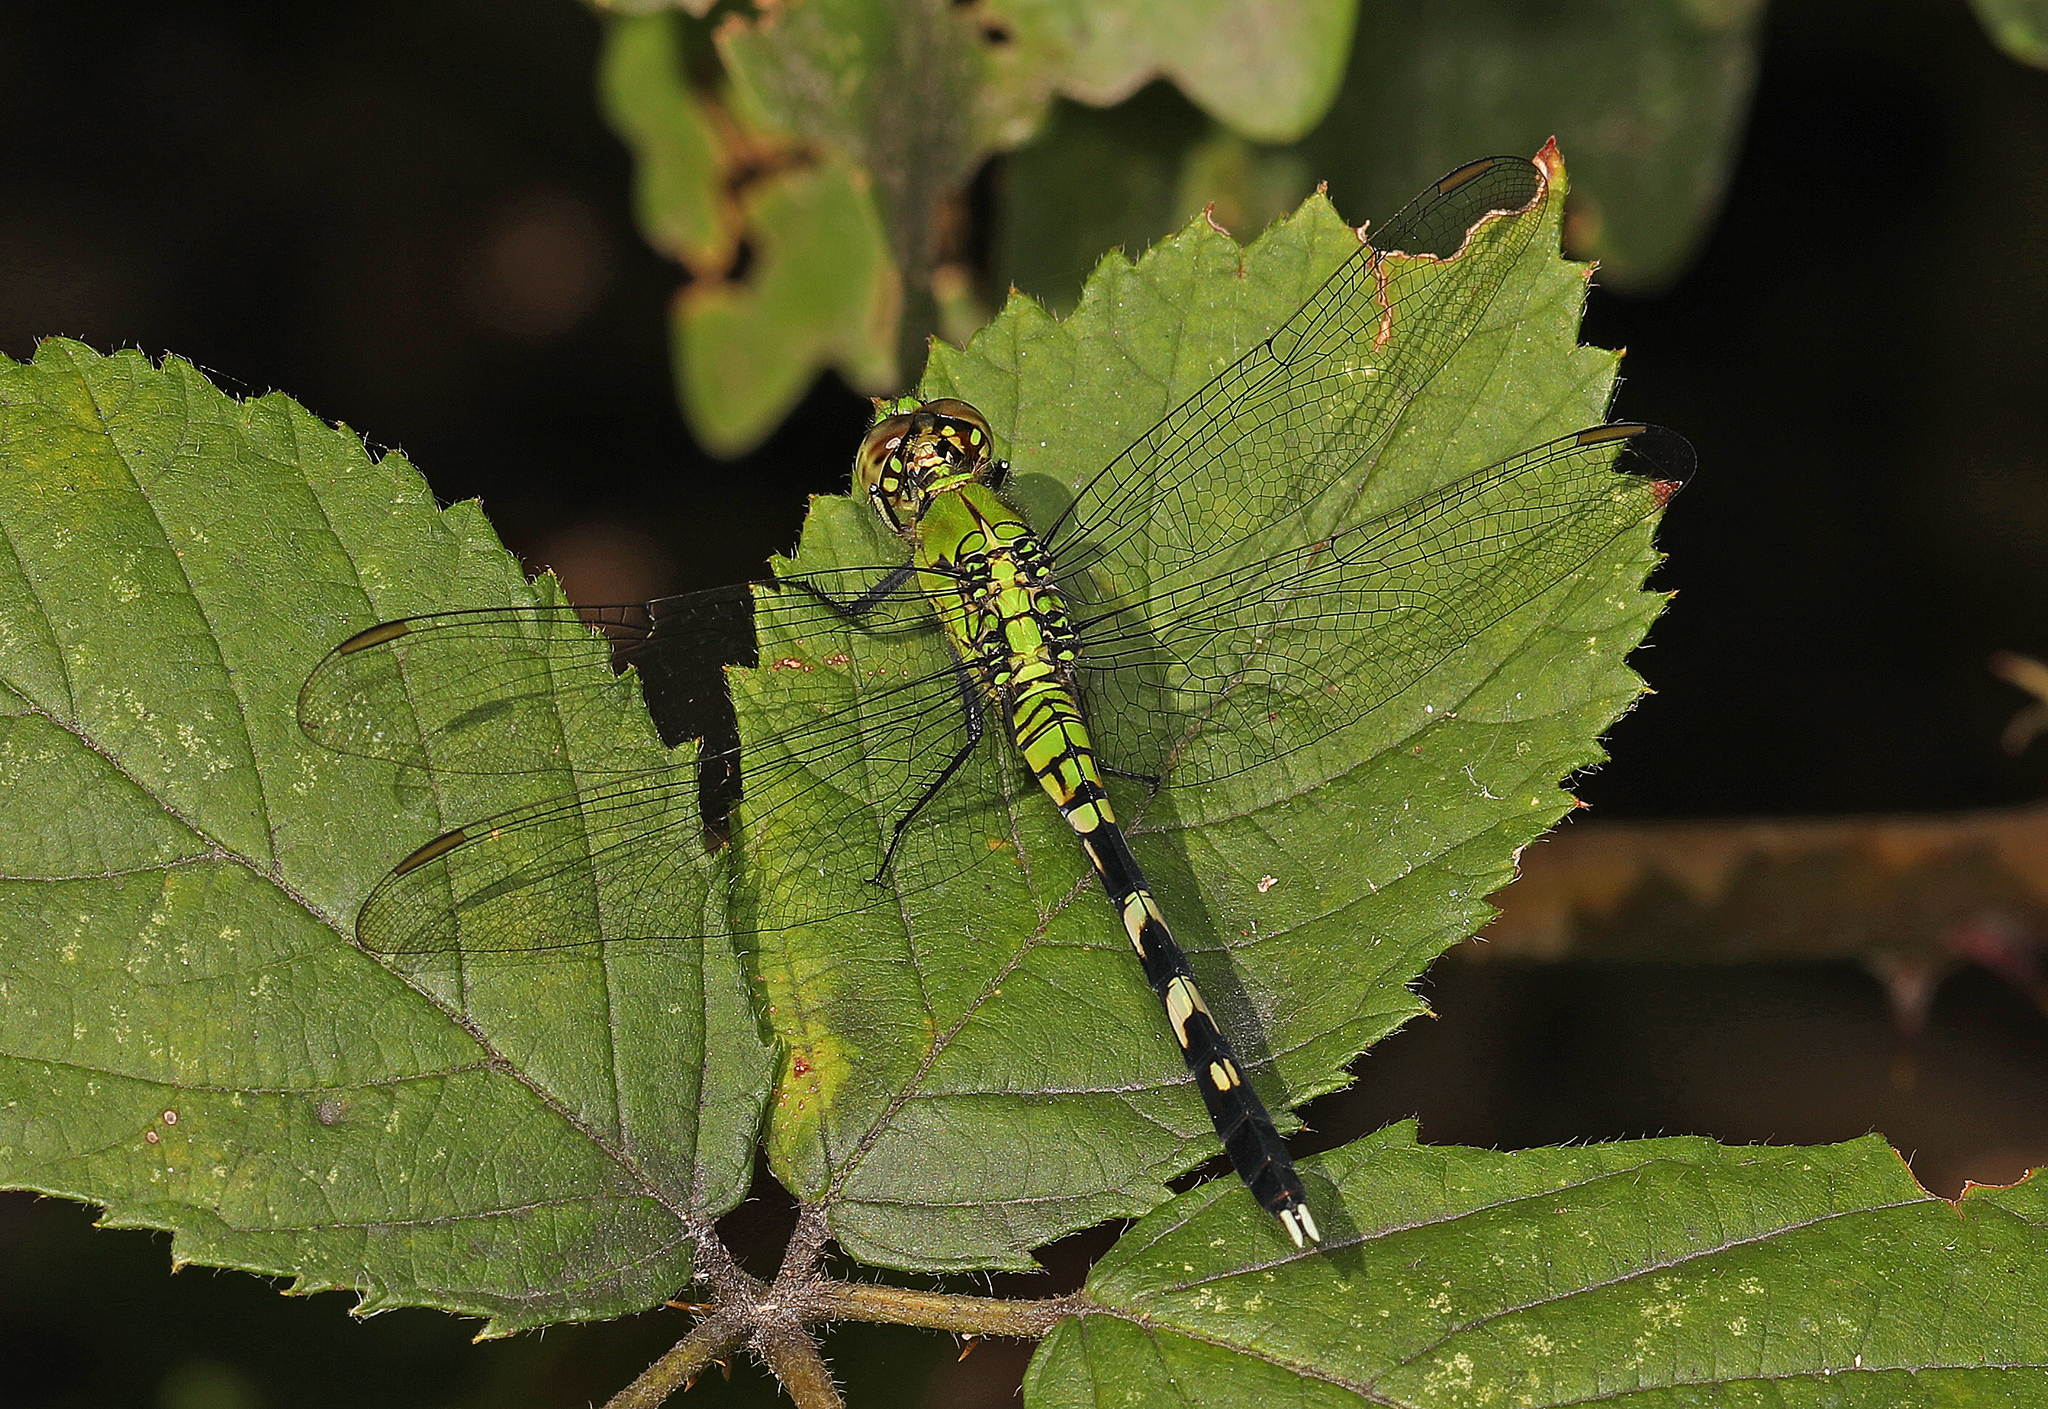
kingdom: Animalia
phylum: Arthropoda
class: Insecta
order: Odonata
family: Libellulidae
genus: Erythemis
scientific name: Erythemis simplicicollis
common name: Eastern pondhawk
